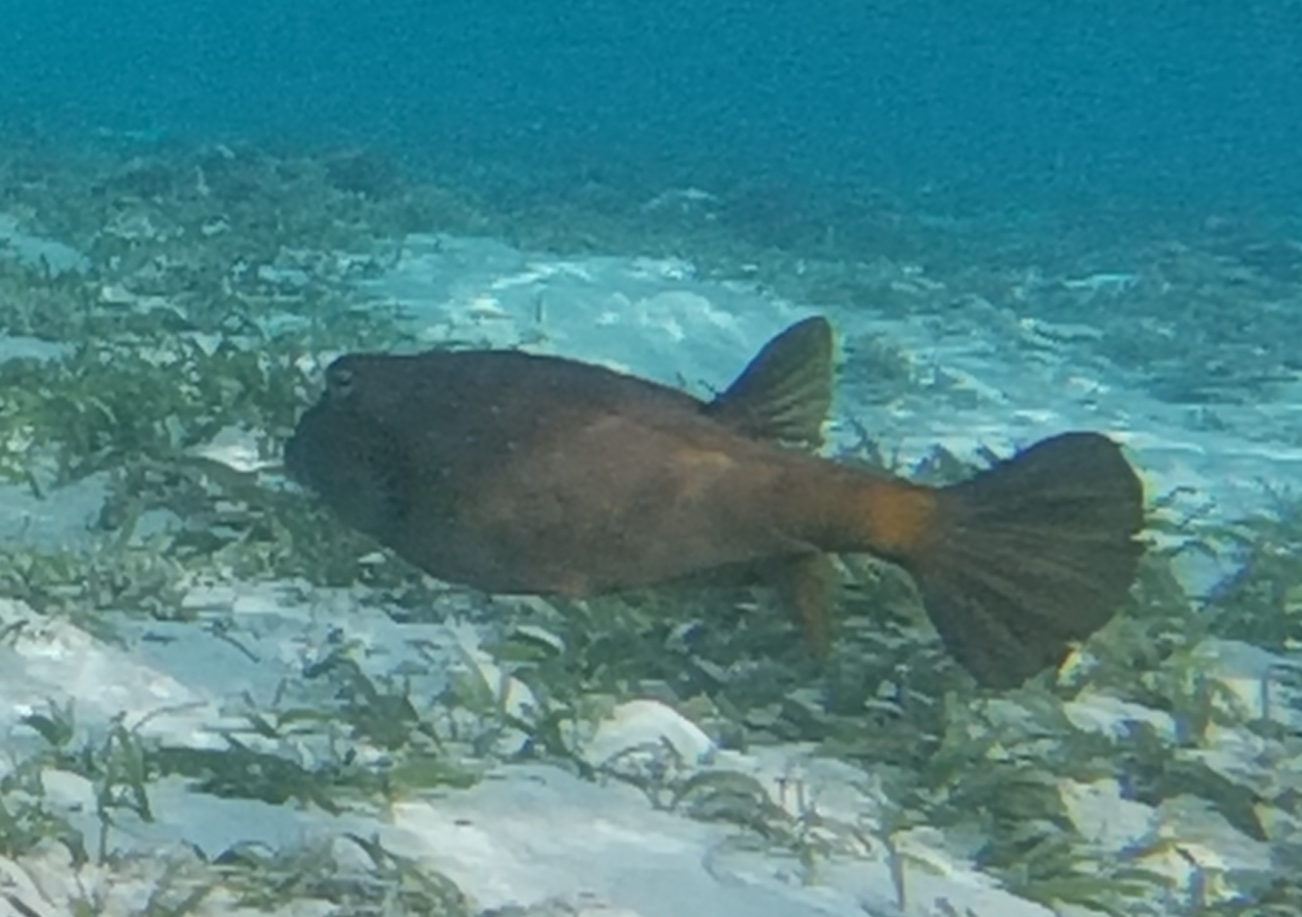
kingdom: Animalia
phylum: Chordata
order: Tetraodontiformes
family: Ostraciidae
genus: Ostracion
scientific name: Ostracion cubicus
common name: Cube trunkfish
